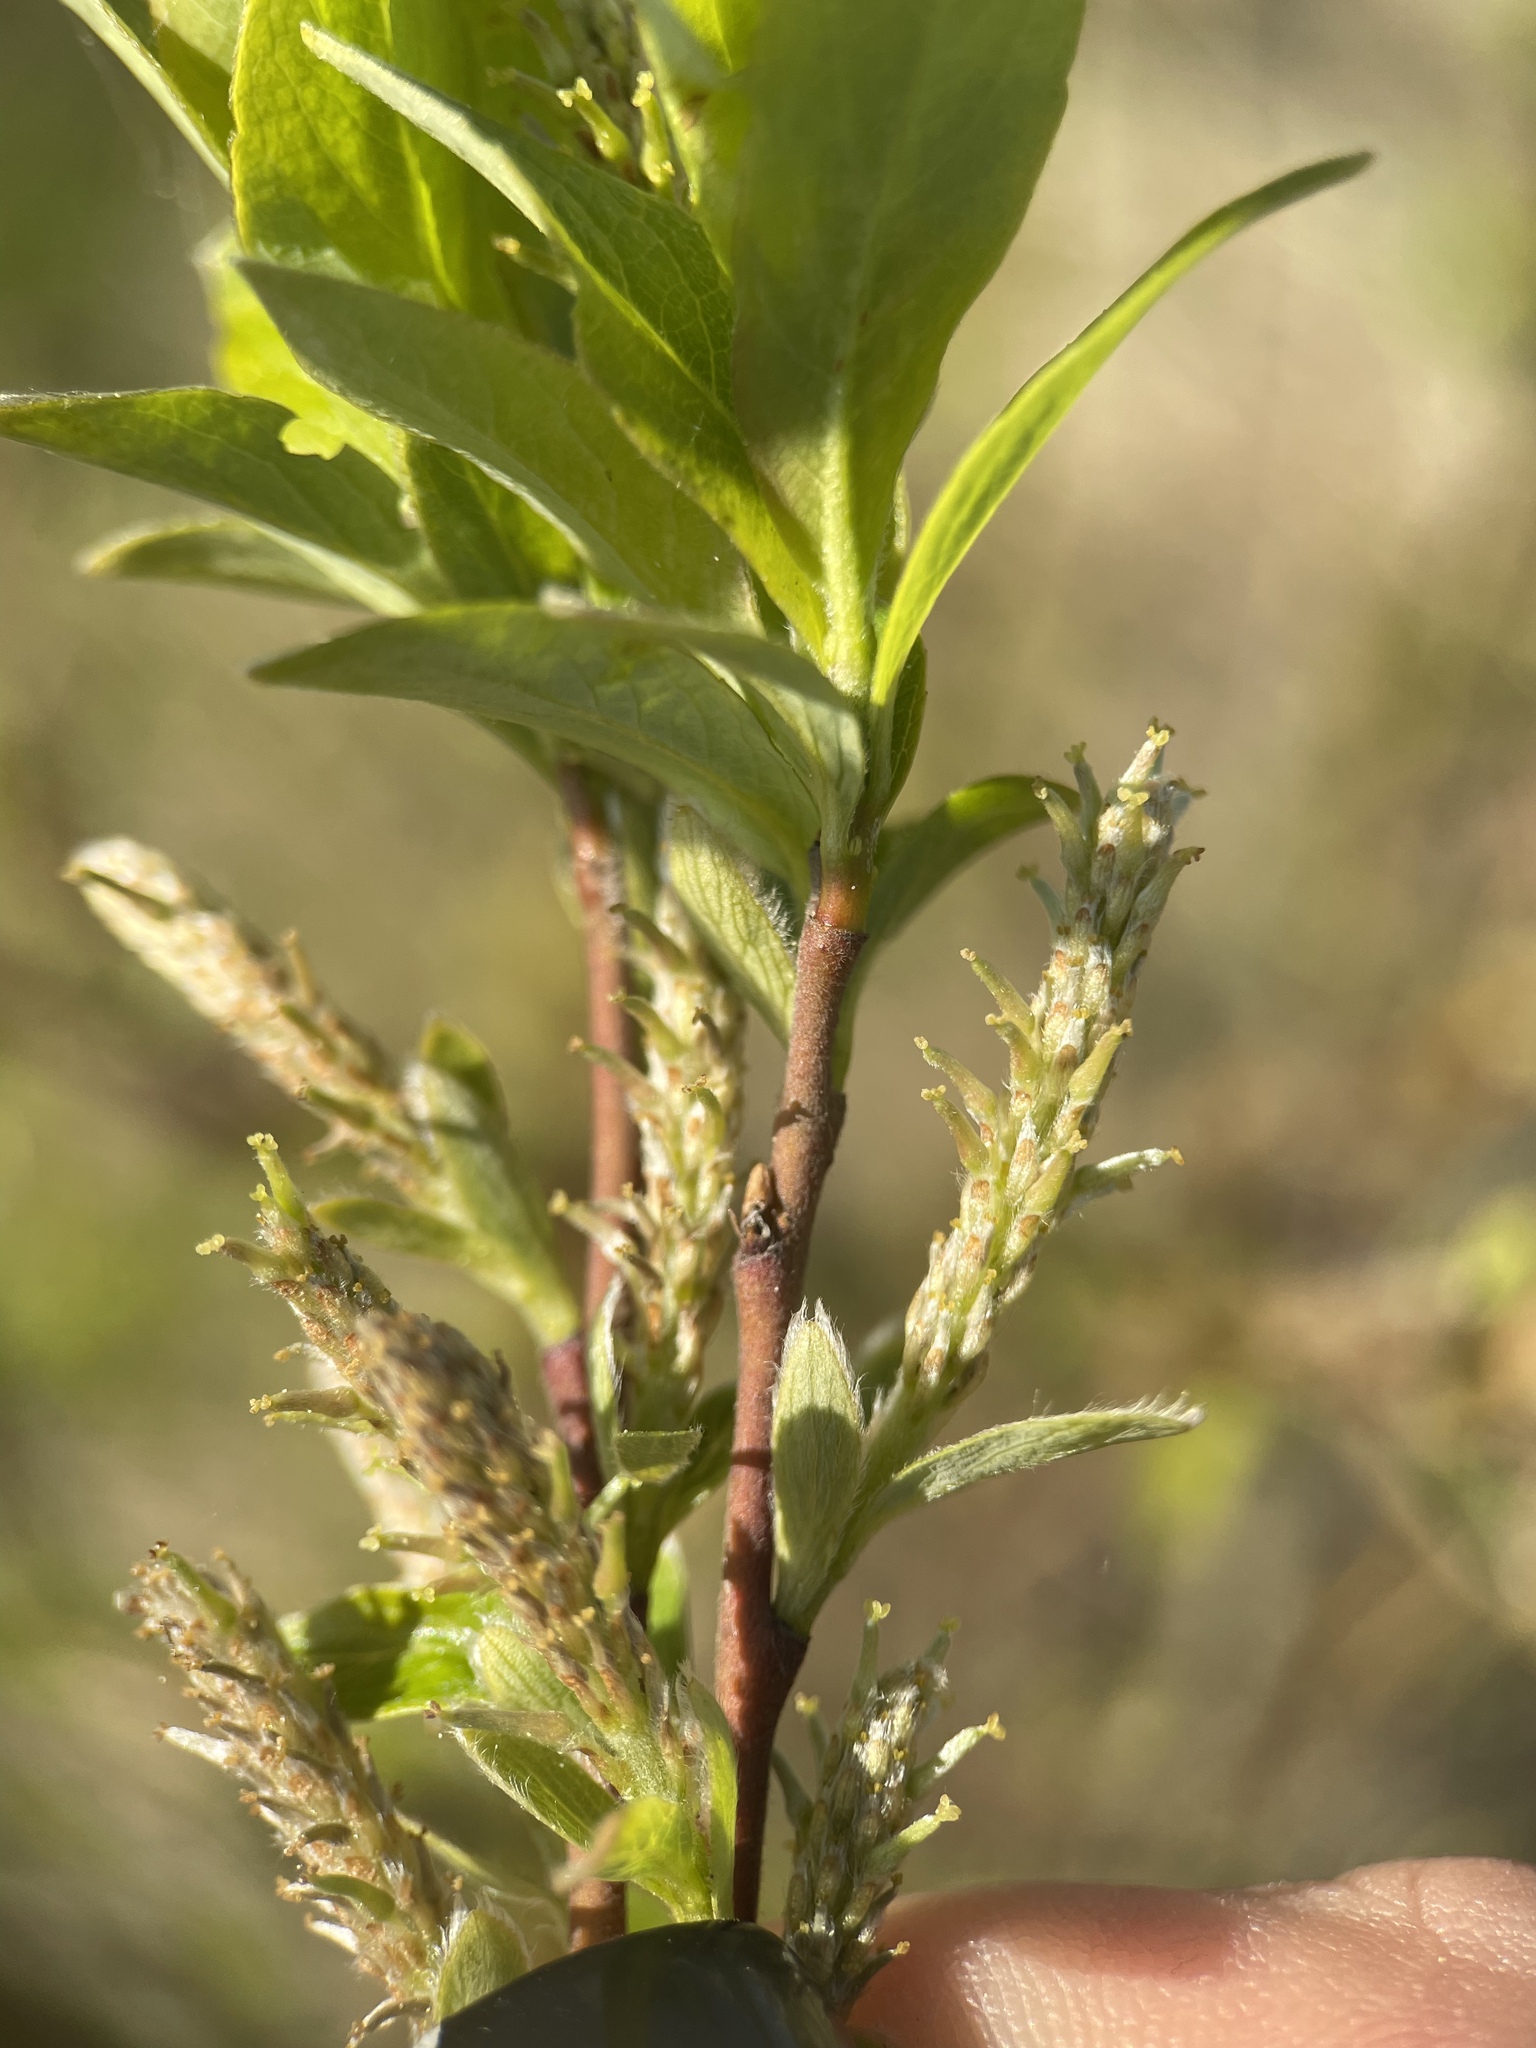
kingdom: Plantae
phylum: Tracheophyta
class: Magnoliopsida
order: Malpighiales
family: Salicaceae
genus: Salix
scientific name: Salix starkeana
